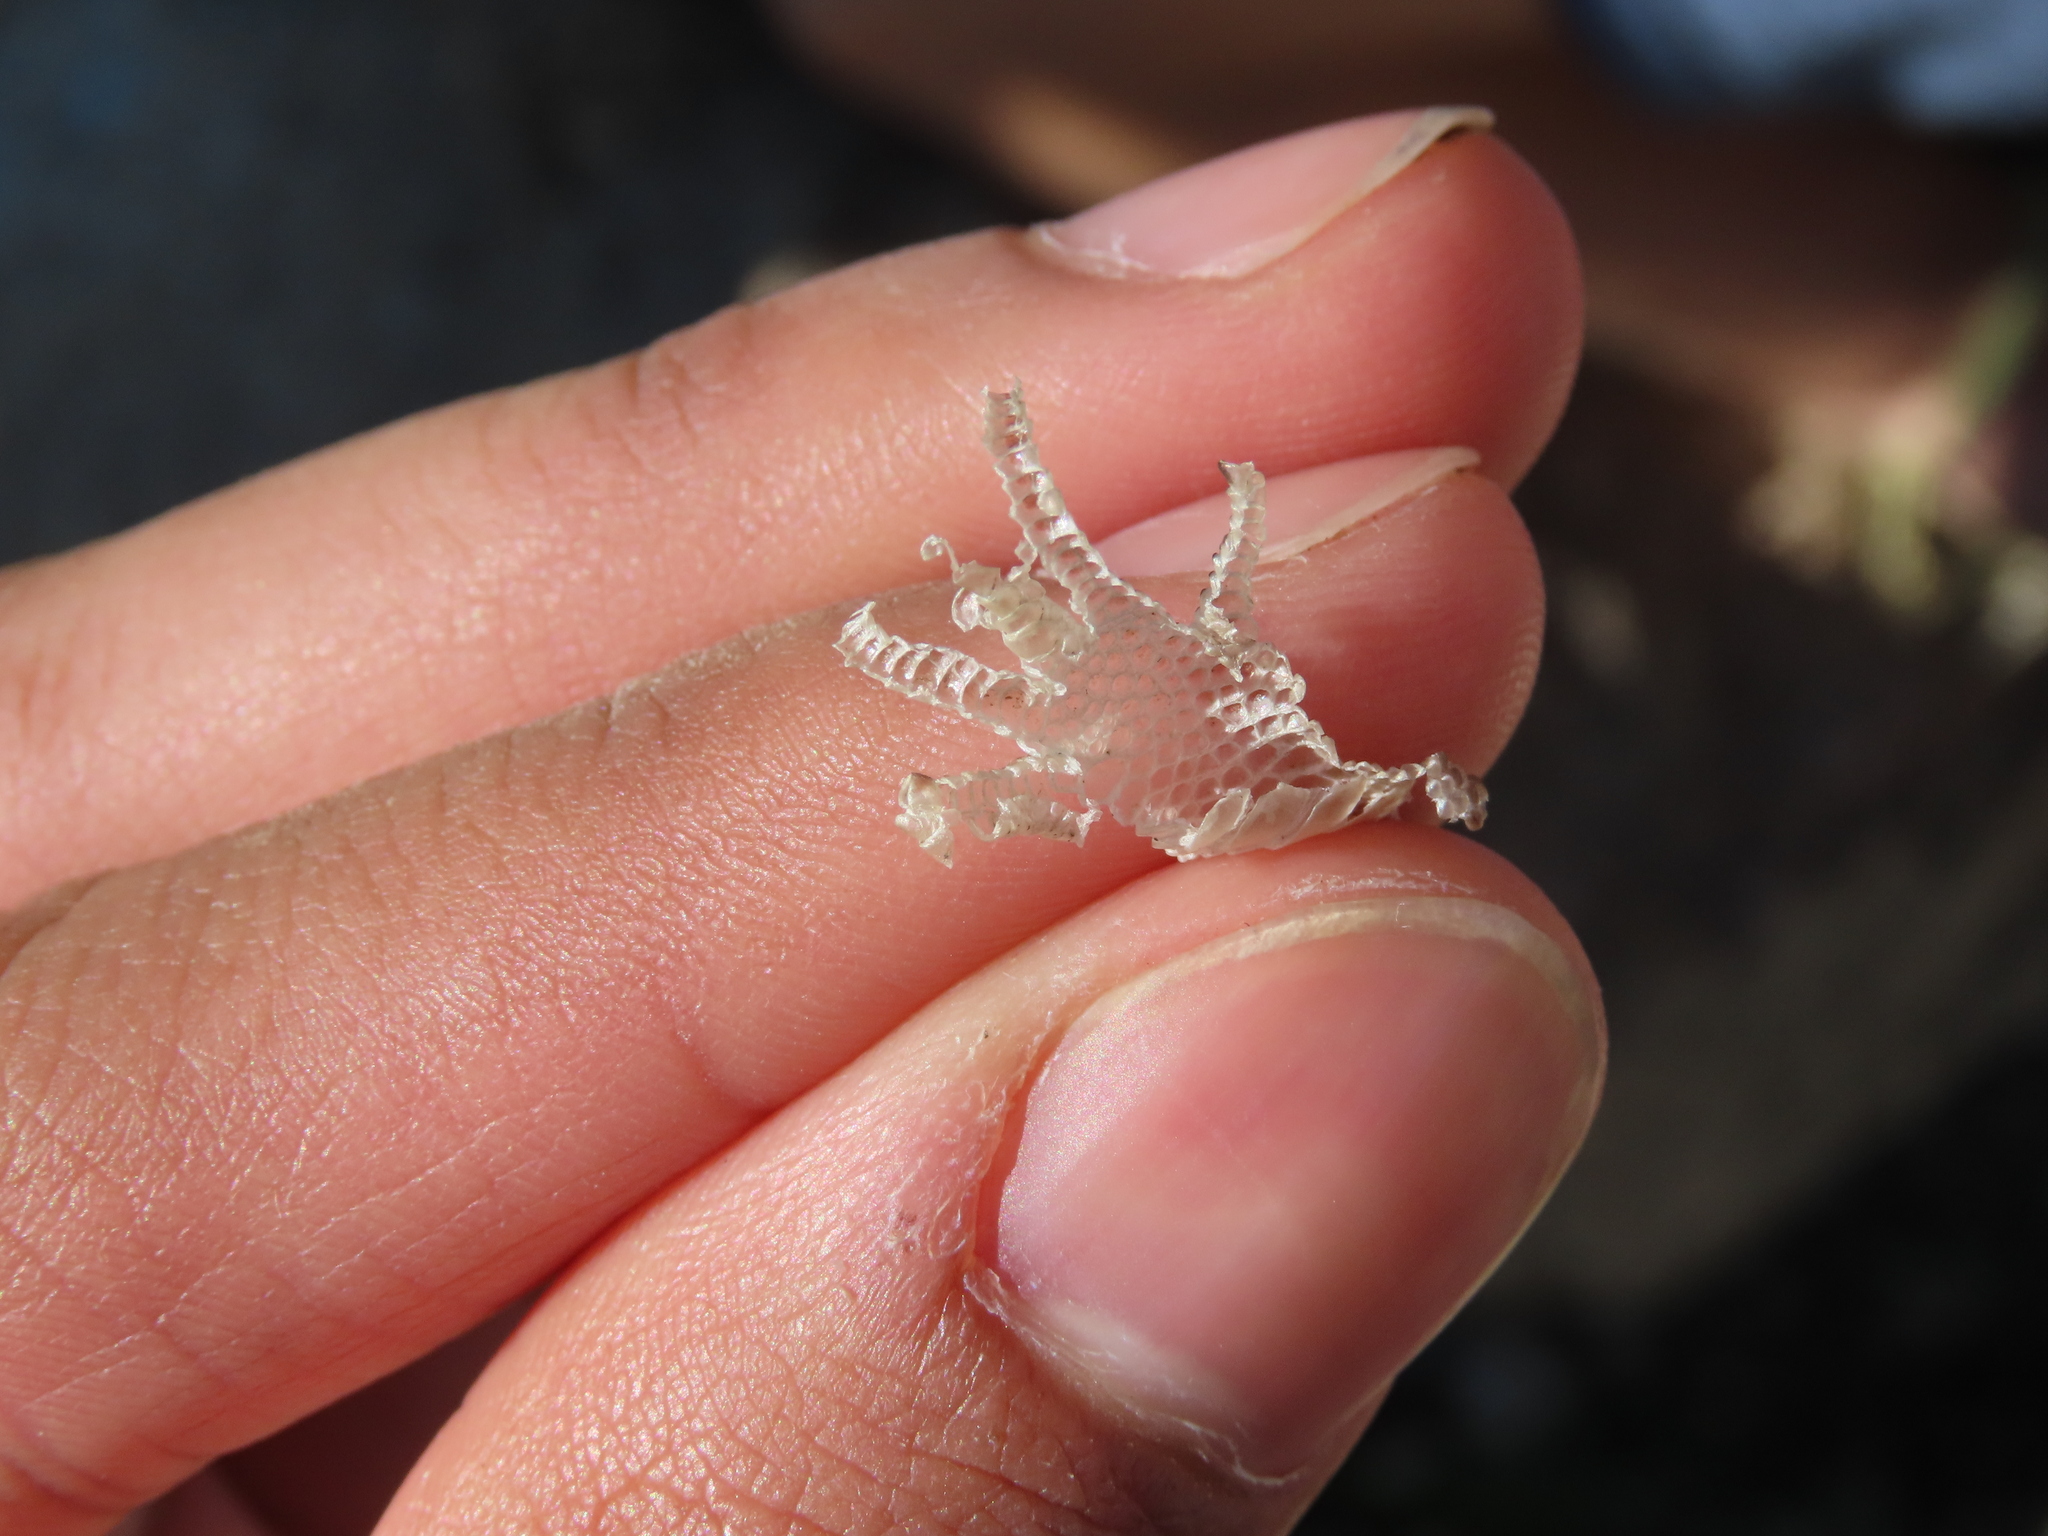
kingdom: Animalia
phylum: Chordata
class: Squamata
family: Lacertidae
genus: Timon
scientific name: Timon lepidus
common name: Ocellated lizard
